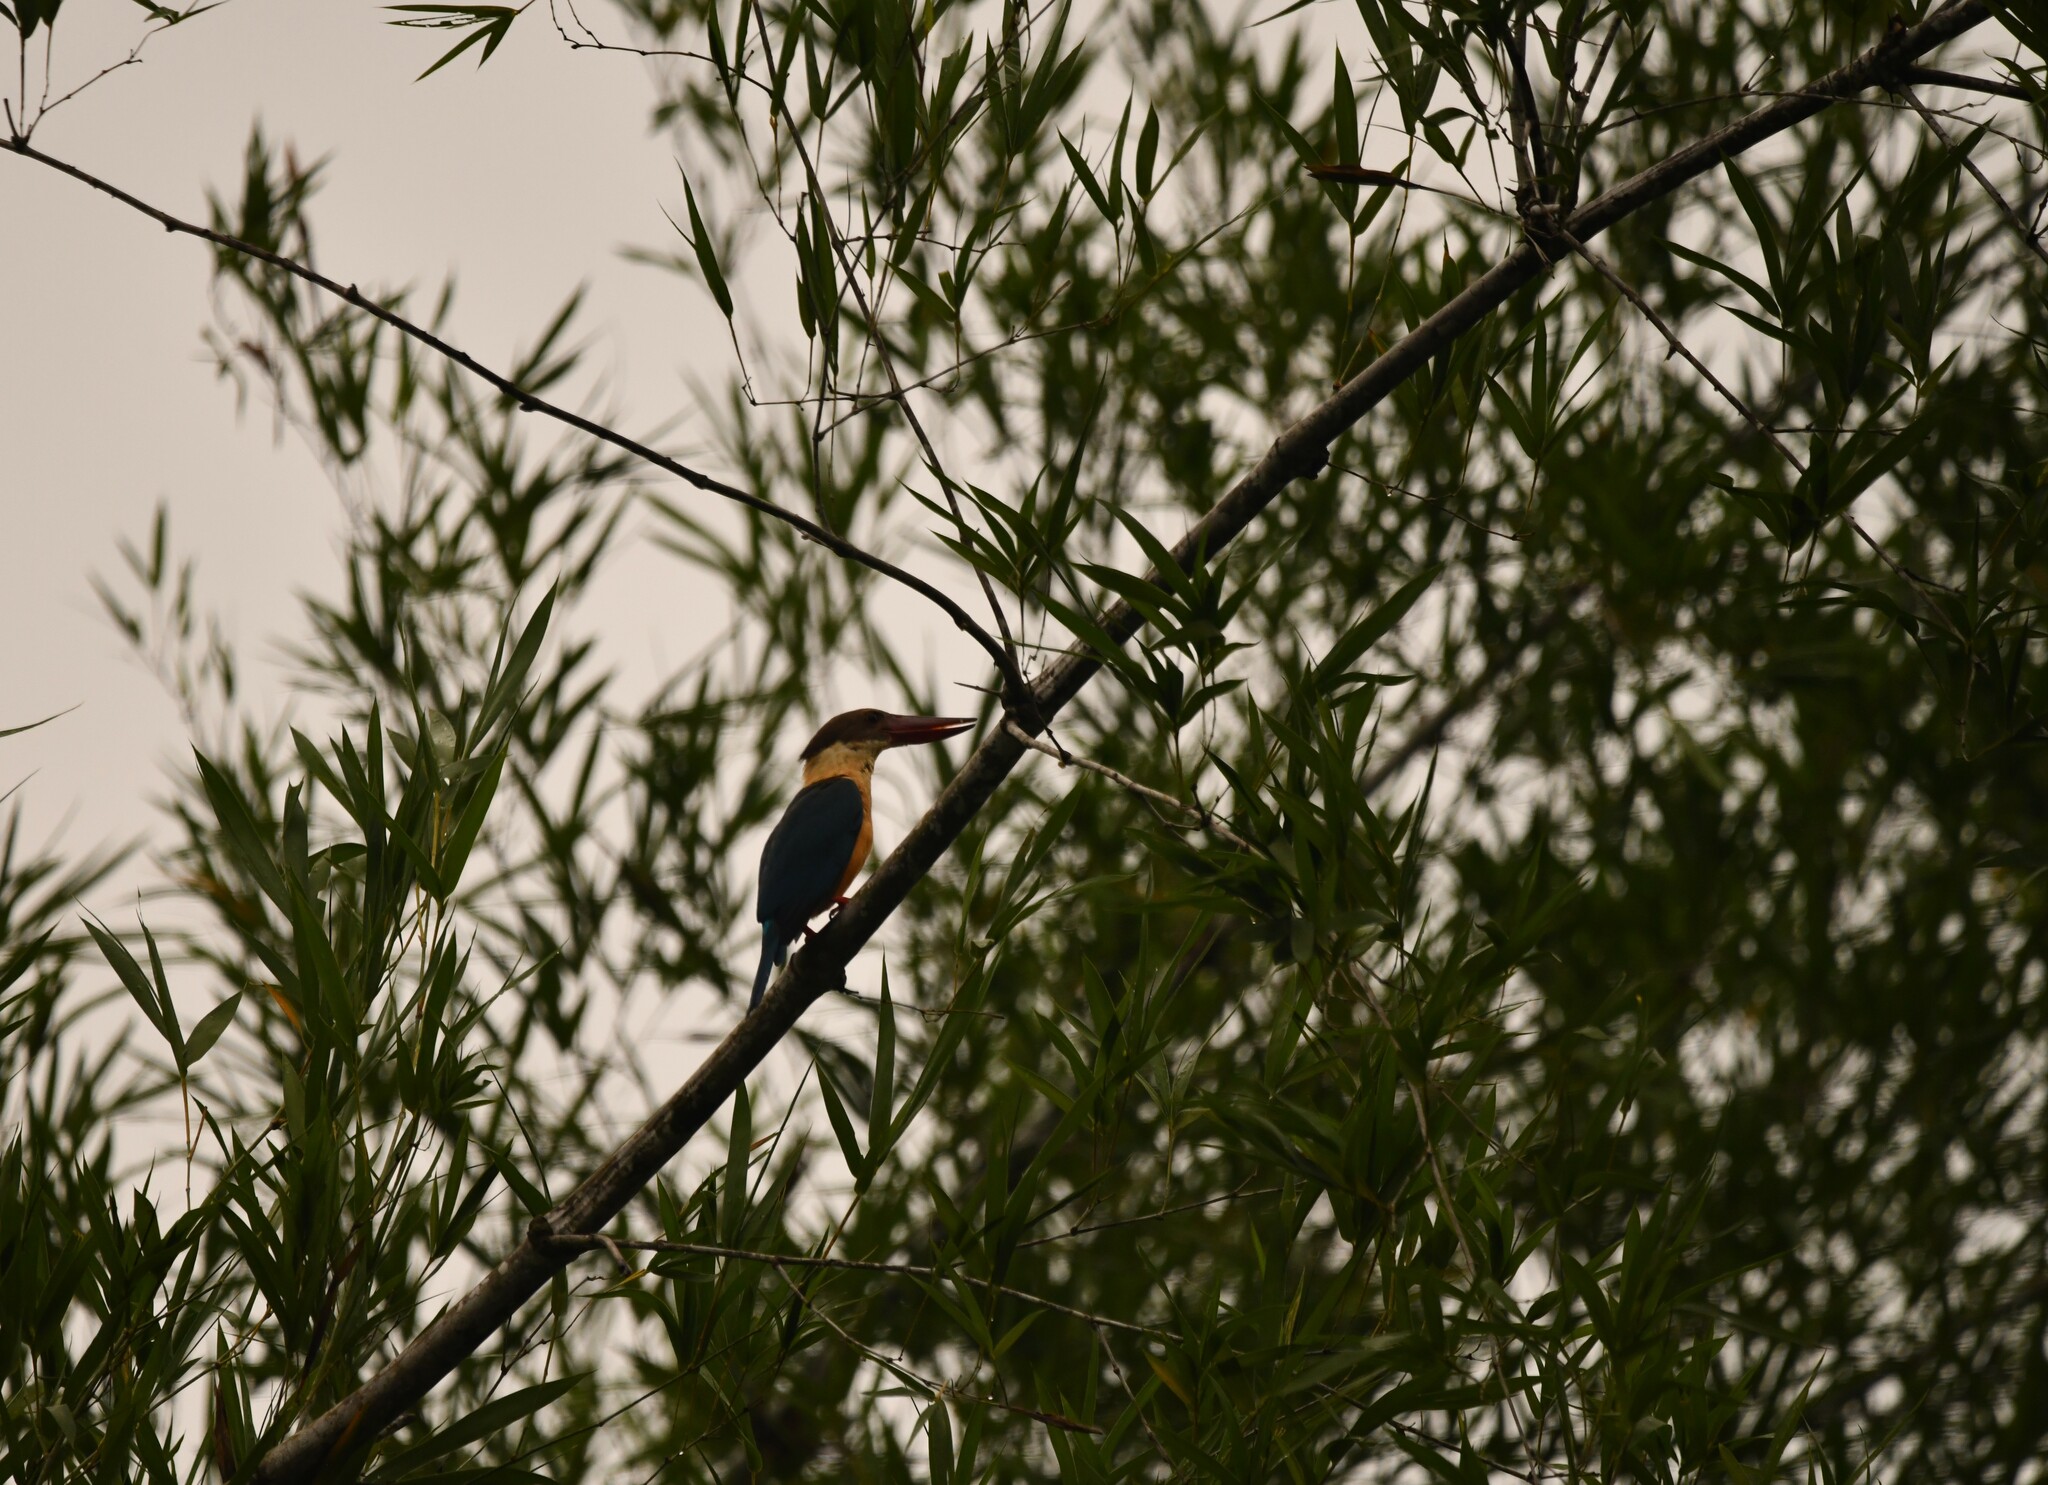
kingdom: Animalia
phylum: Chordata
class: Aves
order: Coraciiformes
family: Alcedinidae
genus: Pelargopsis
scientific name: Pelargopsis capensis
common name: Stork-billed kingfisher
